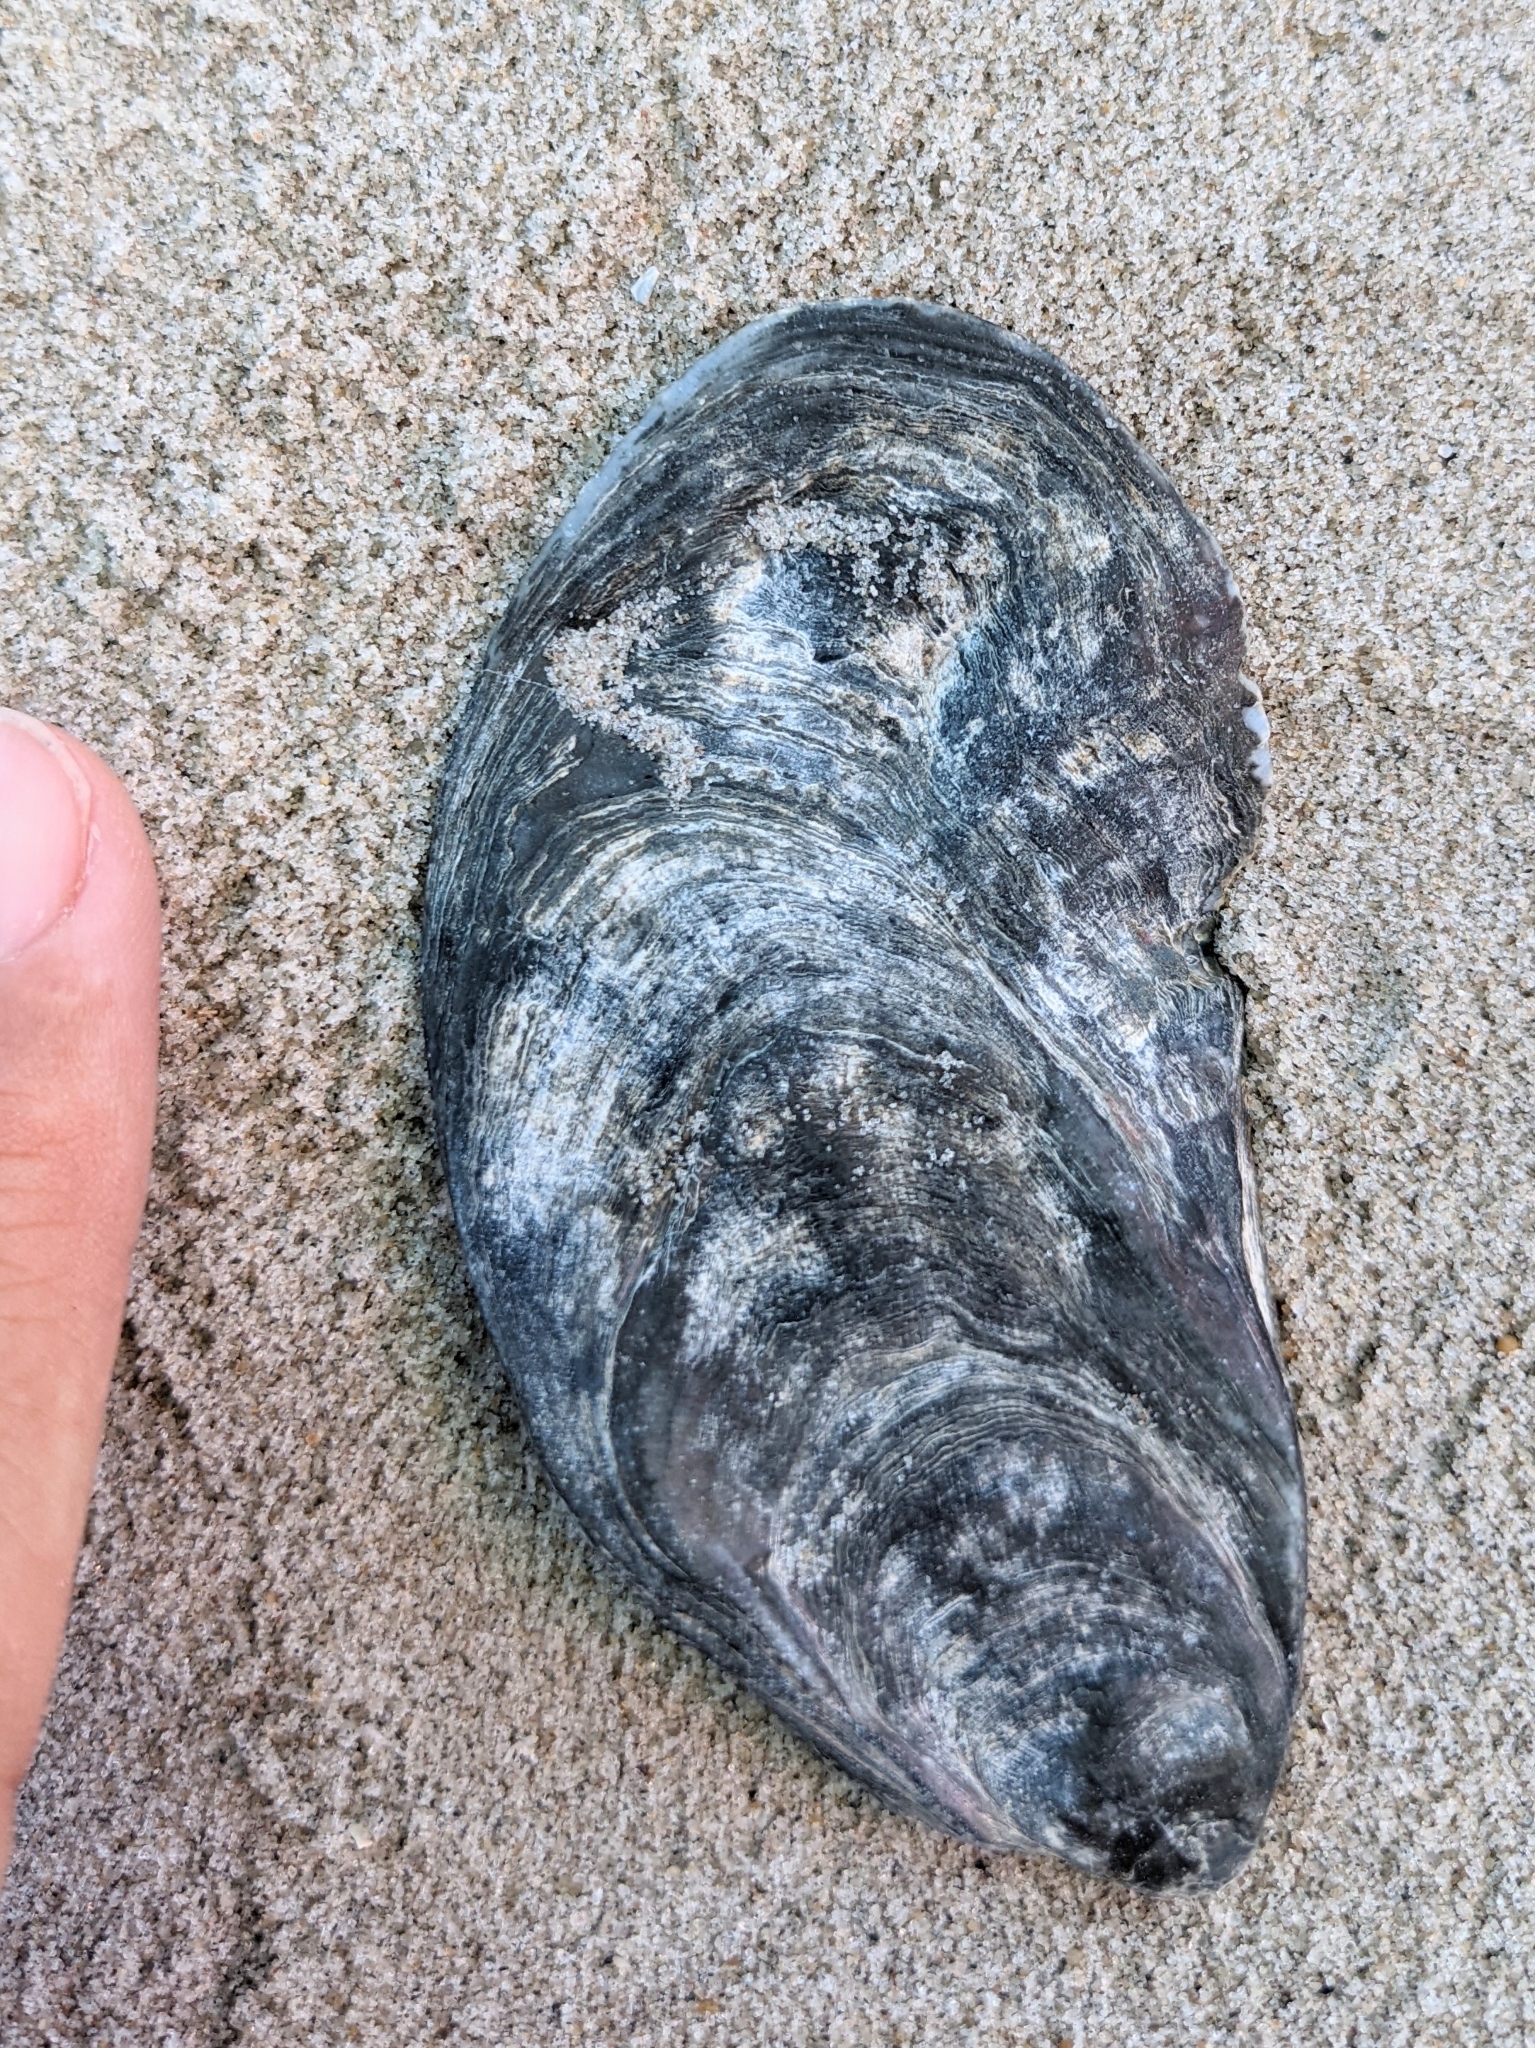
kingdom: Animalia
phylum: Mollusca
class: Bivalvia
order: Ostreida
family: Ostreidae
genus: Crassostrea
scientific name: Crassostrea virginica
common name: American oyster
